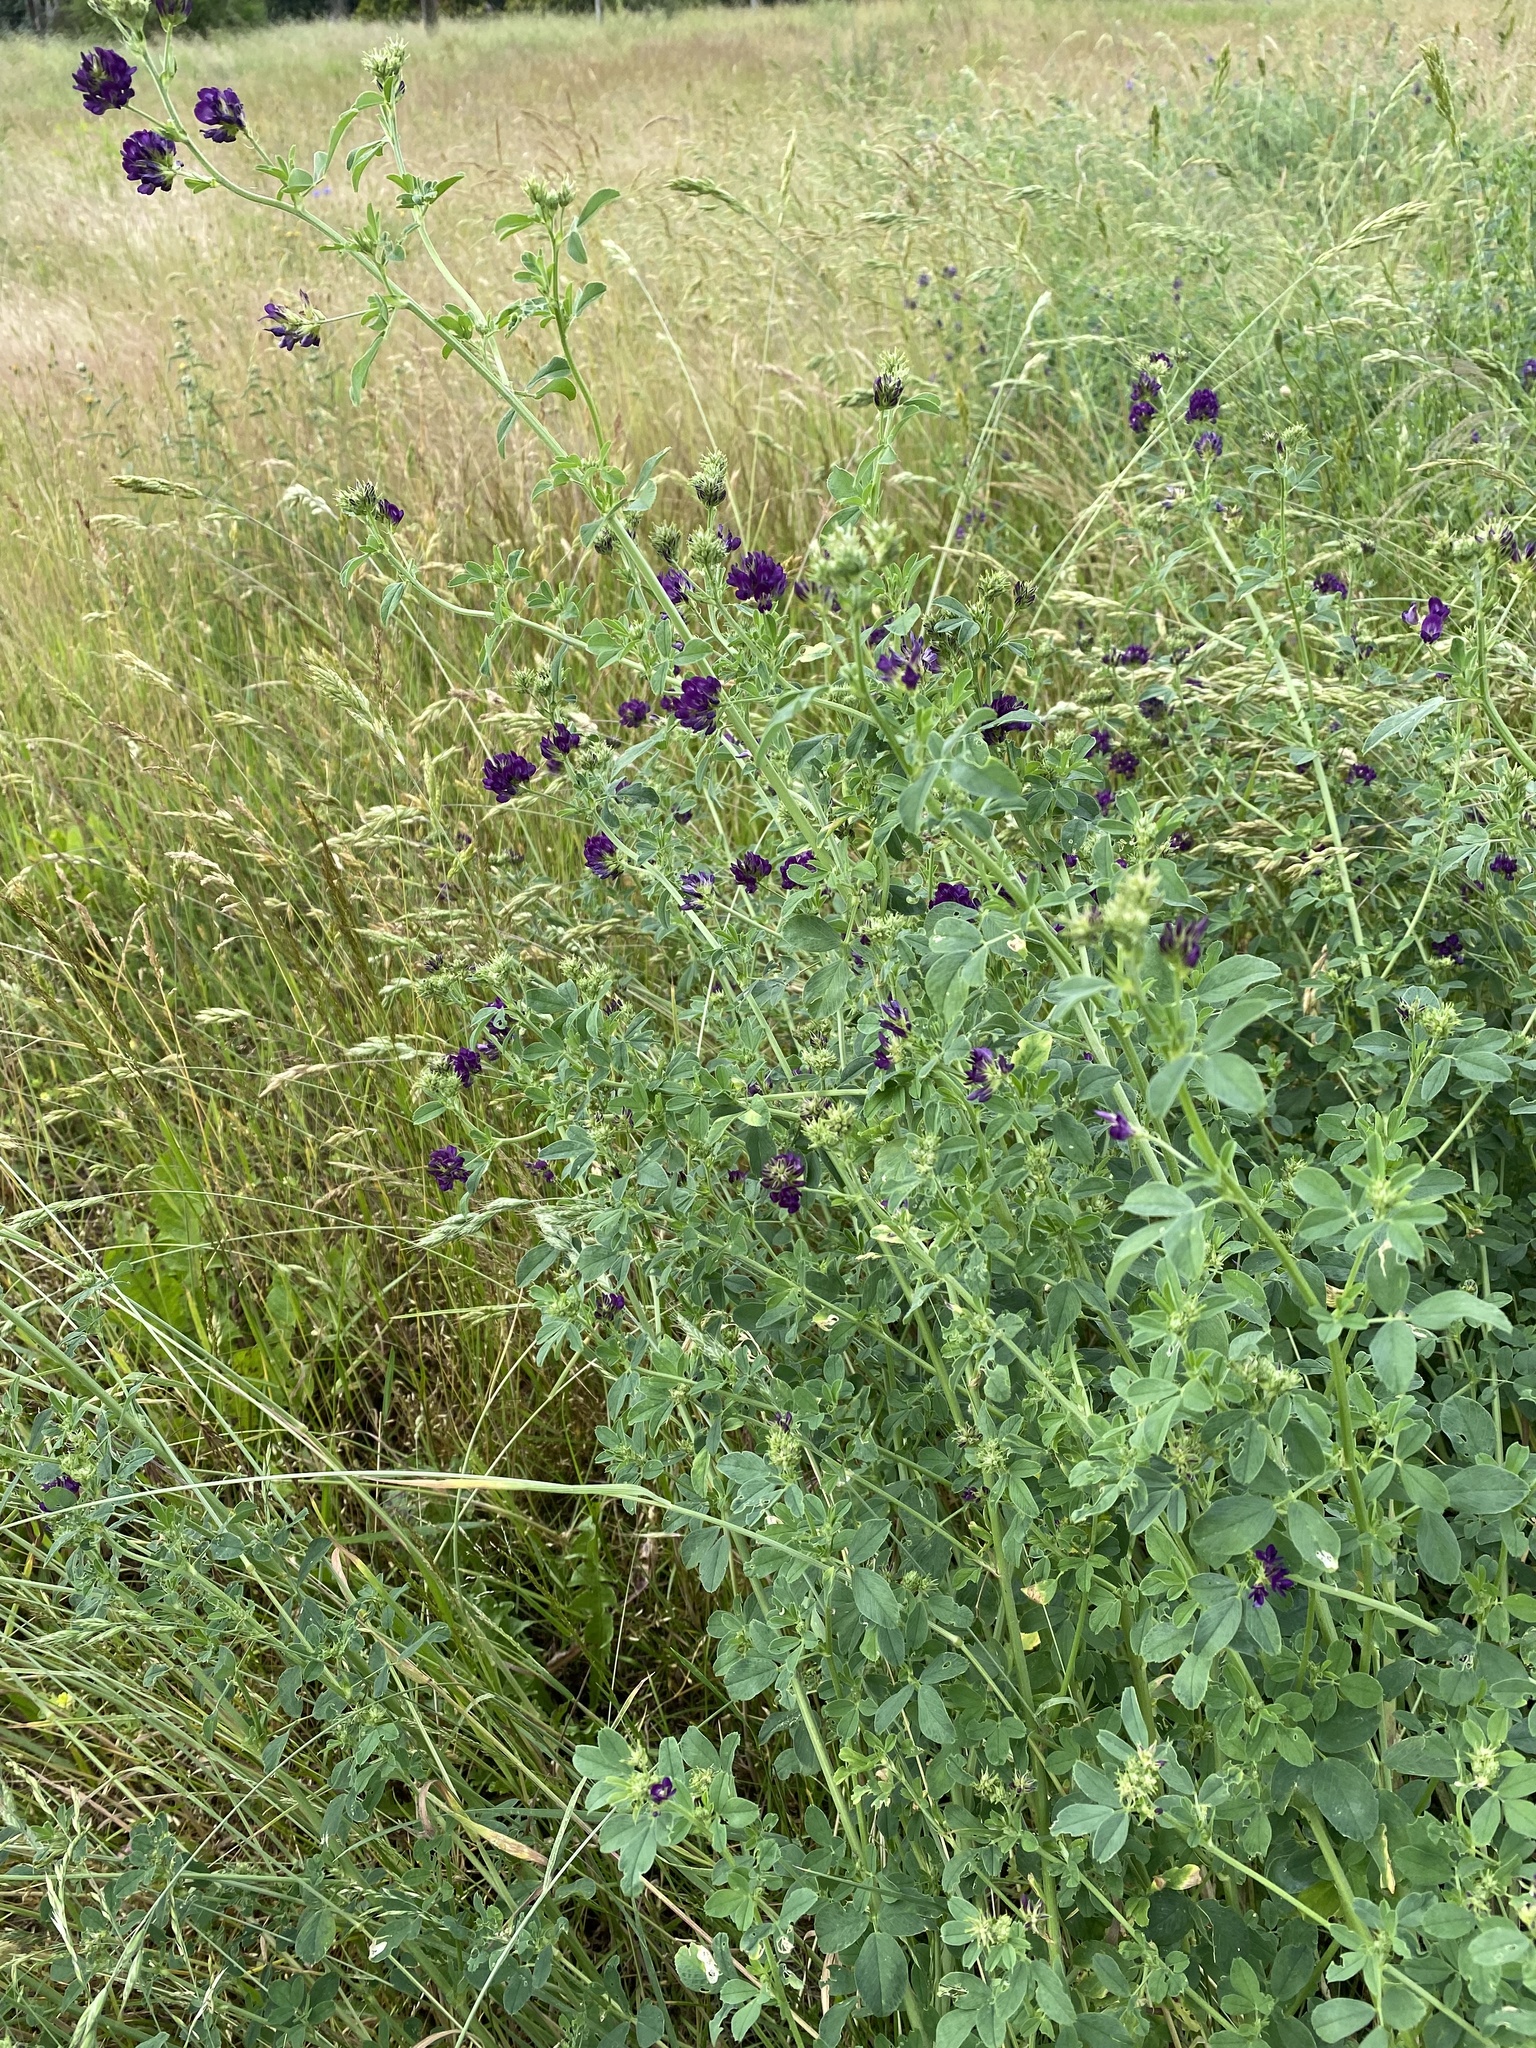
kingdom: Plantae
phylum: Tracheophyta
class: Magnoliopsida
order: Fabales
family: Fabaceae
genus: Medicago
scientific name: Medicago sativa
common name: Alfalfa
